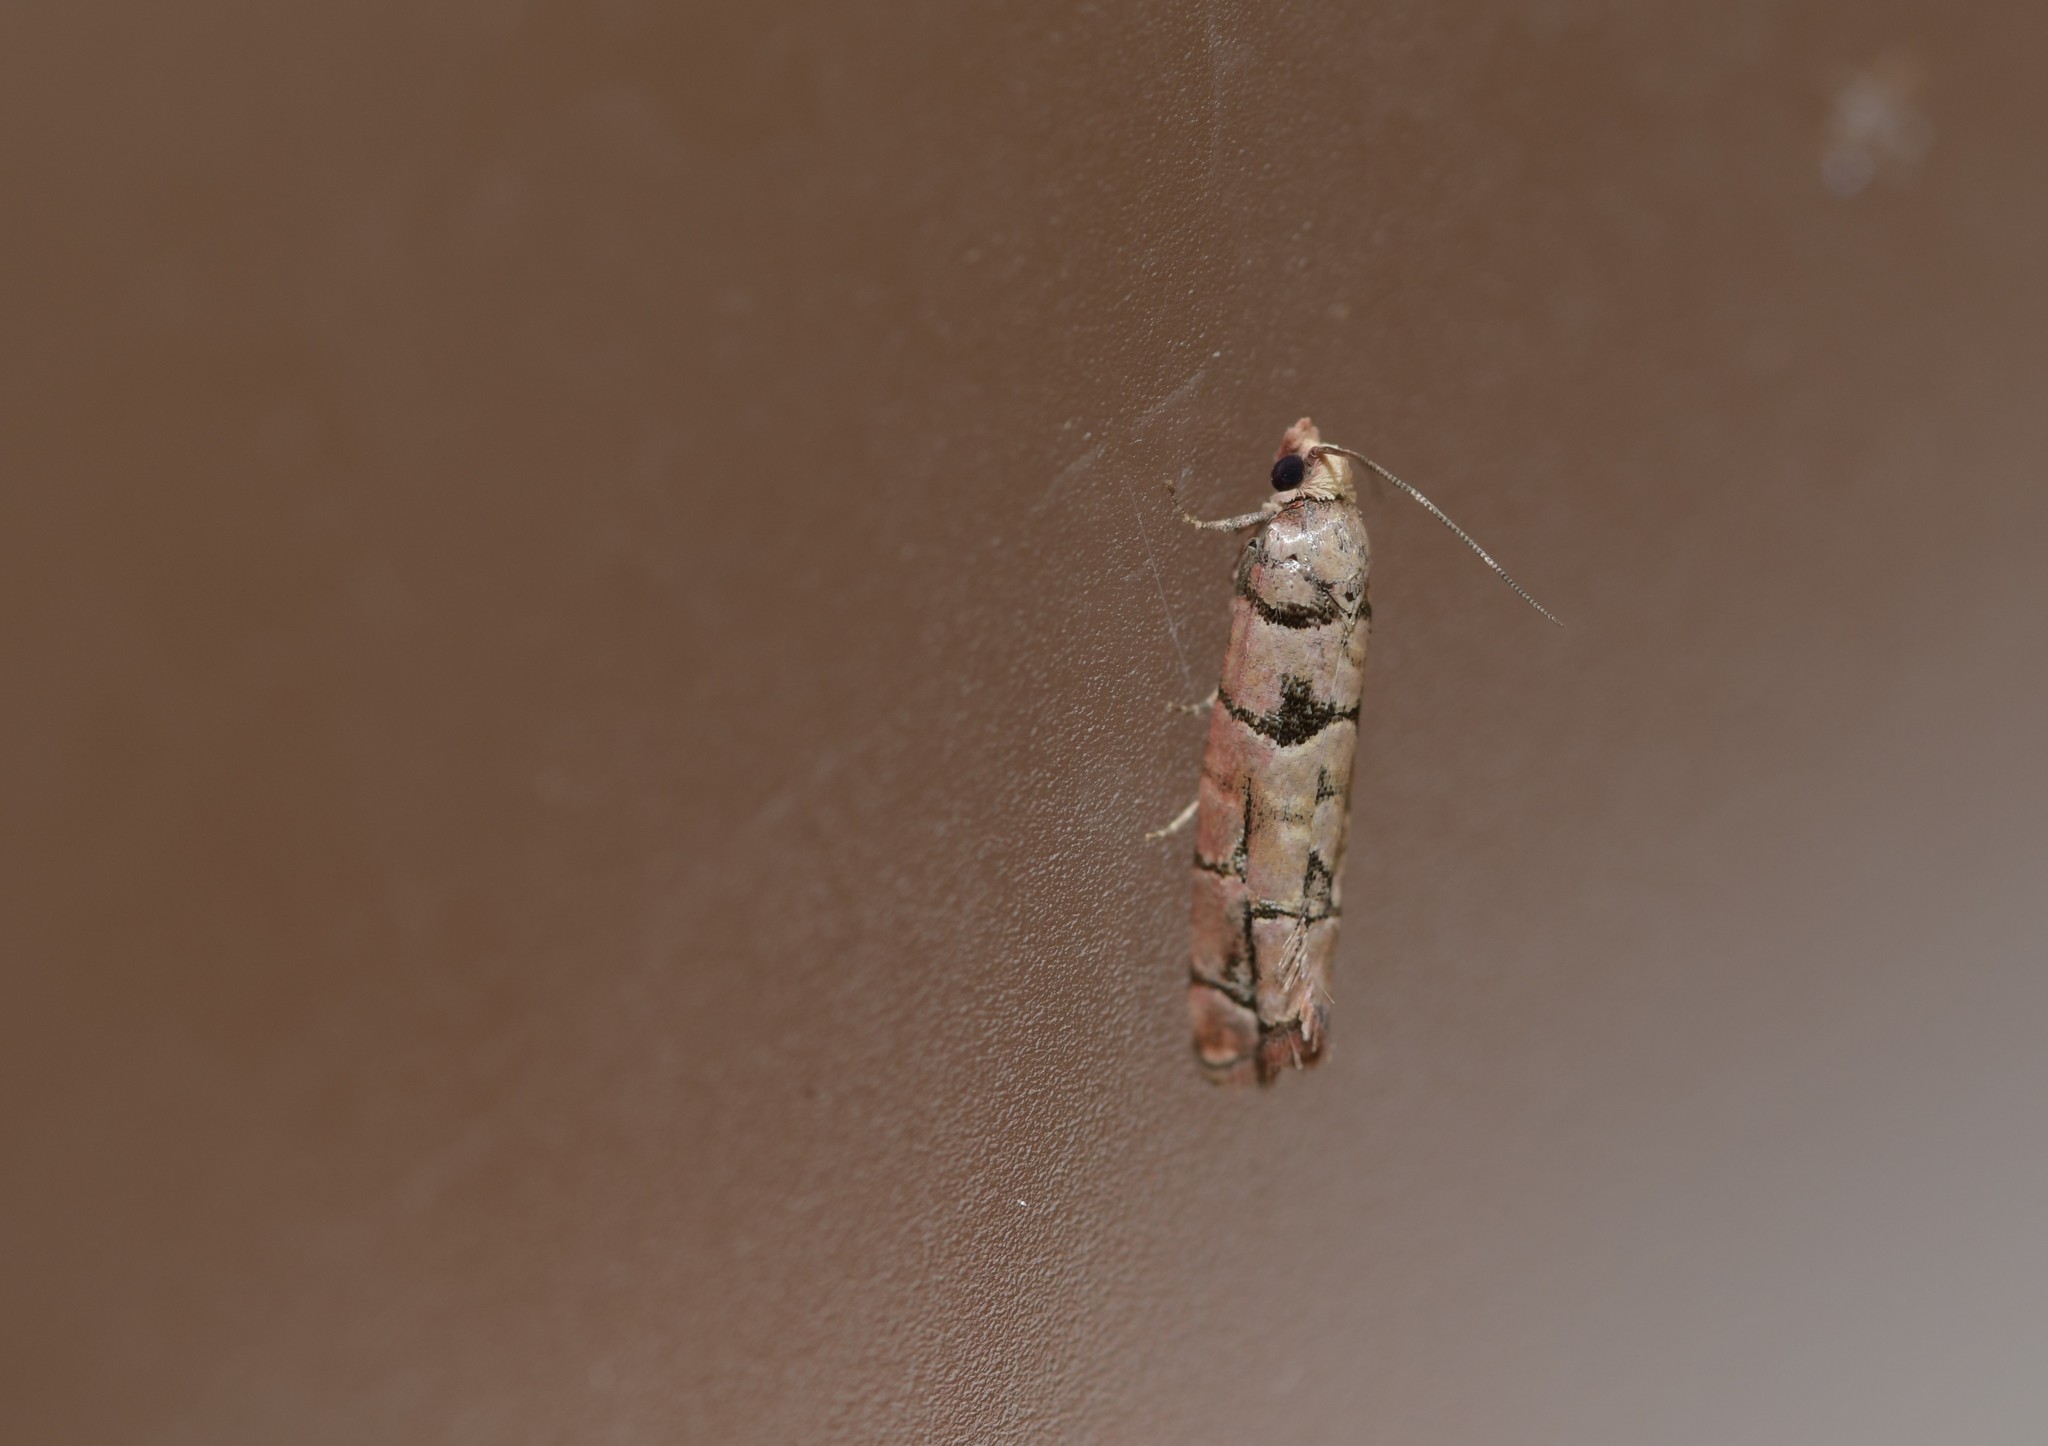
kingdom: Animalia
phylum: Arthropoda
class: Insecta
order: Lepidoptera
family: Tortricidae
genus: Blastesthia
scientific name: Blastesthia tessulatana
